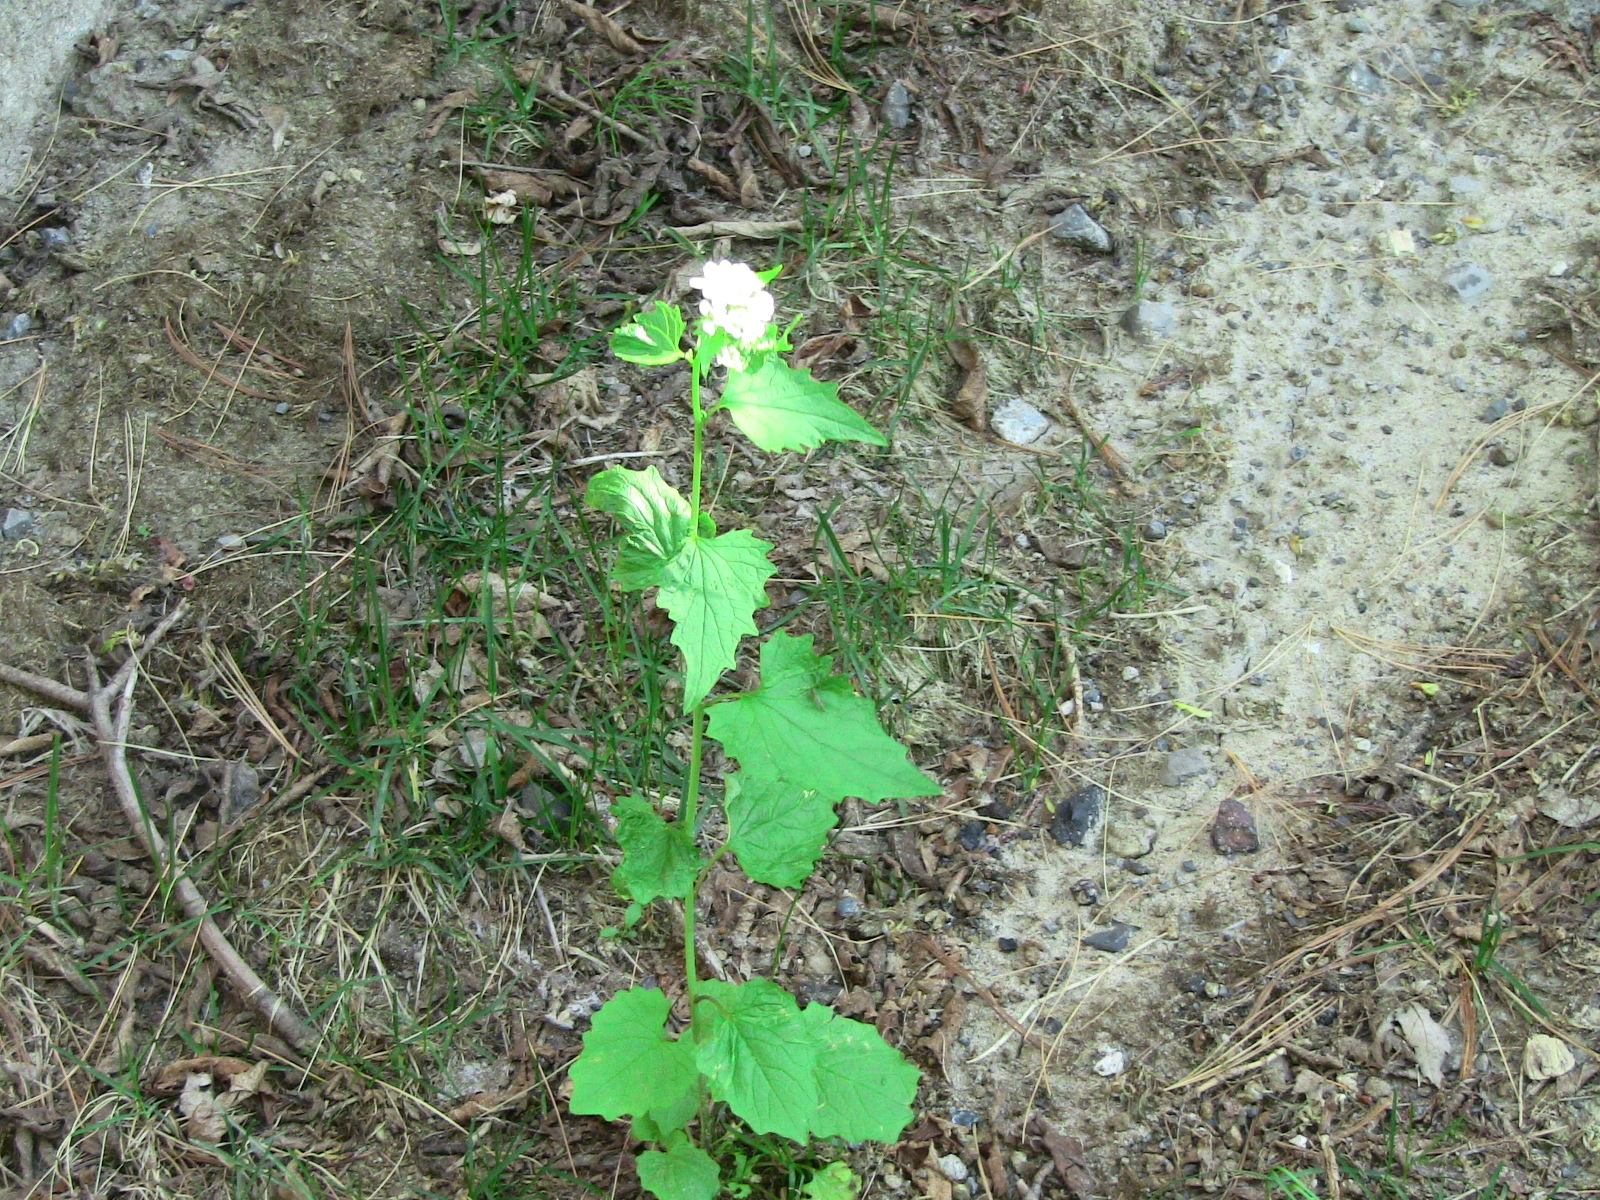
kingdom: Plantae
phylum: Tracheophyta
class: Magnoliopsida
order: Brassicales
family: Brassicaceae
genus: Alliaria
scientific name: Alliaria petiolata
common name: Garlic mustard
